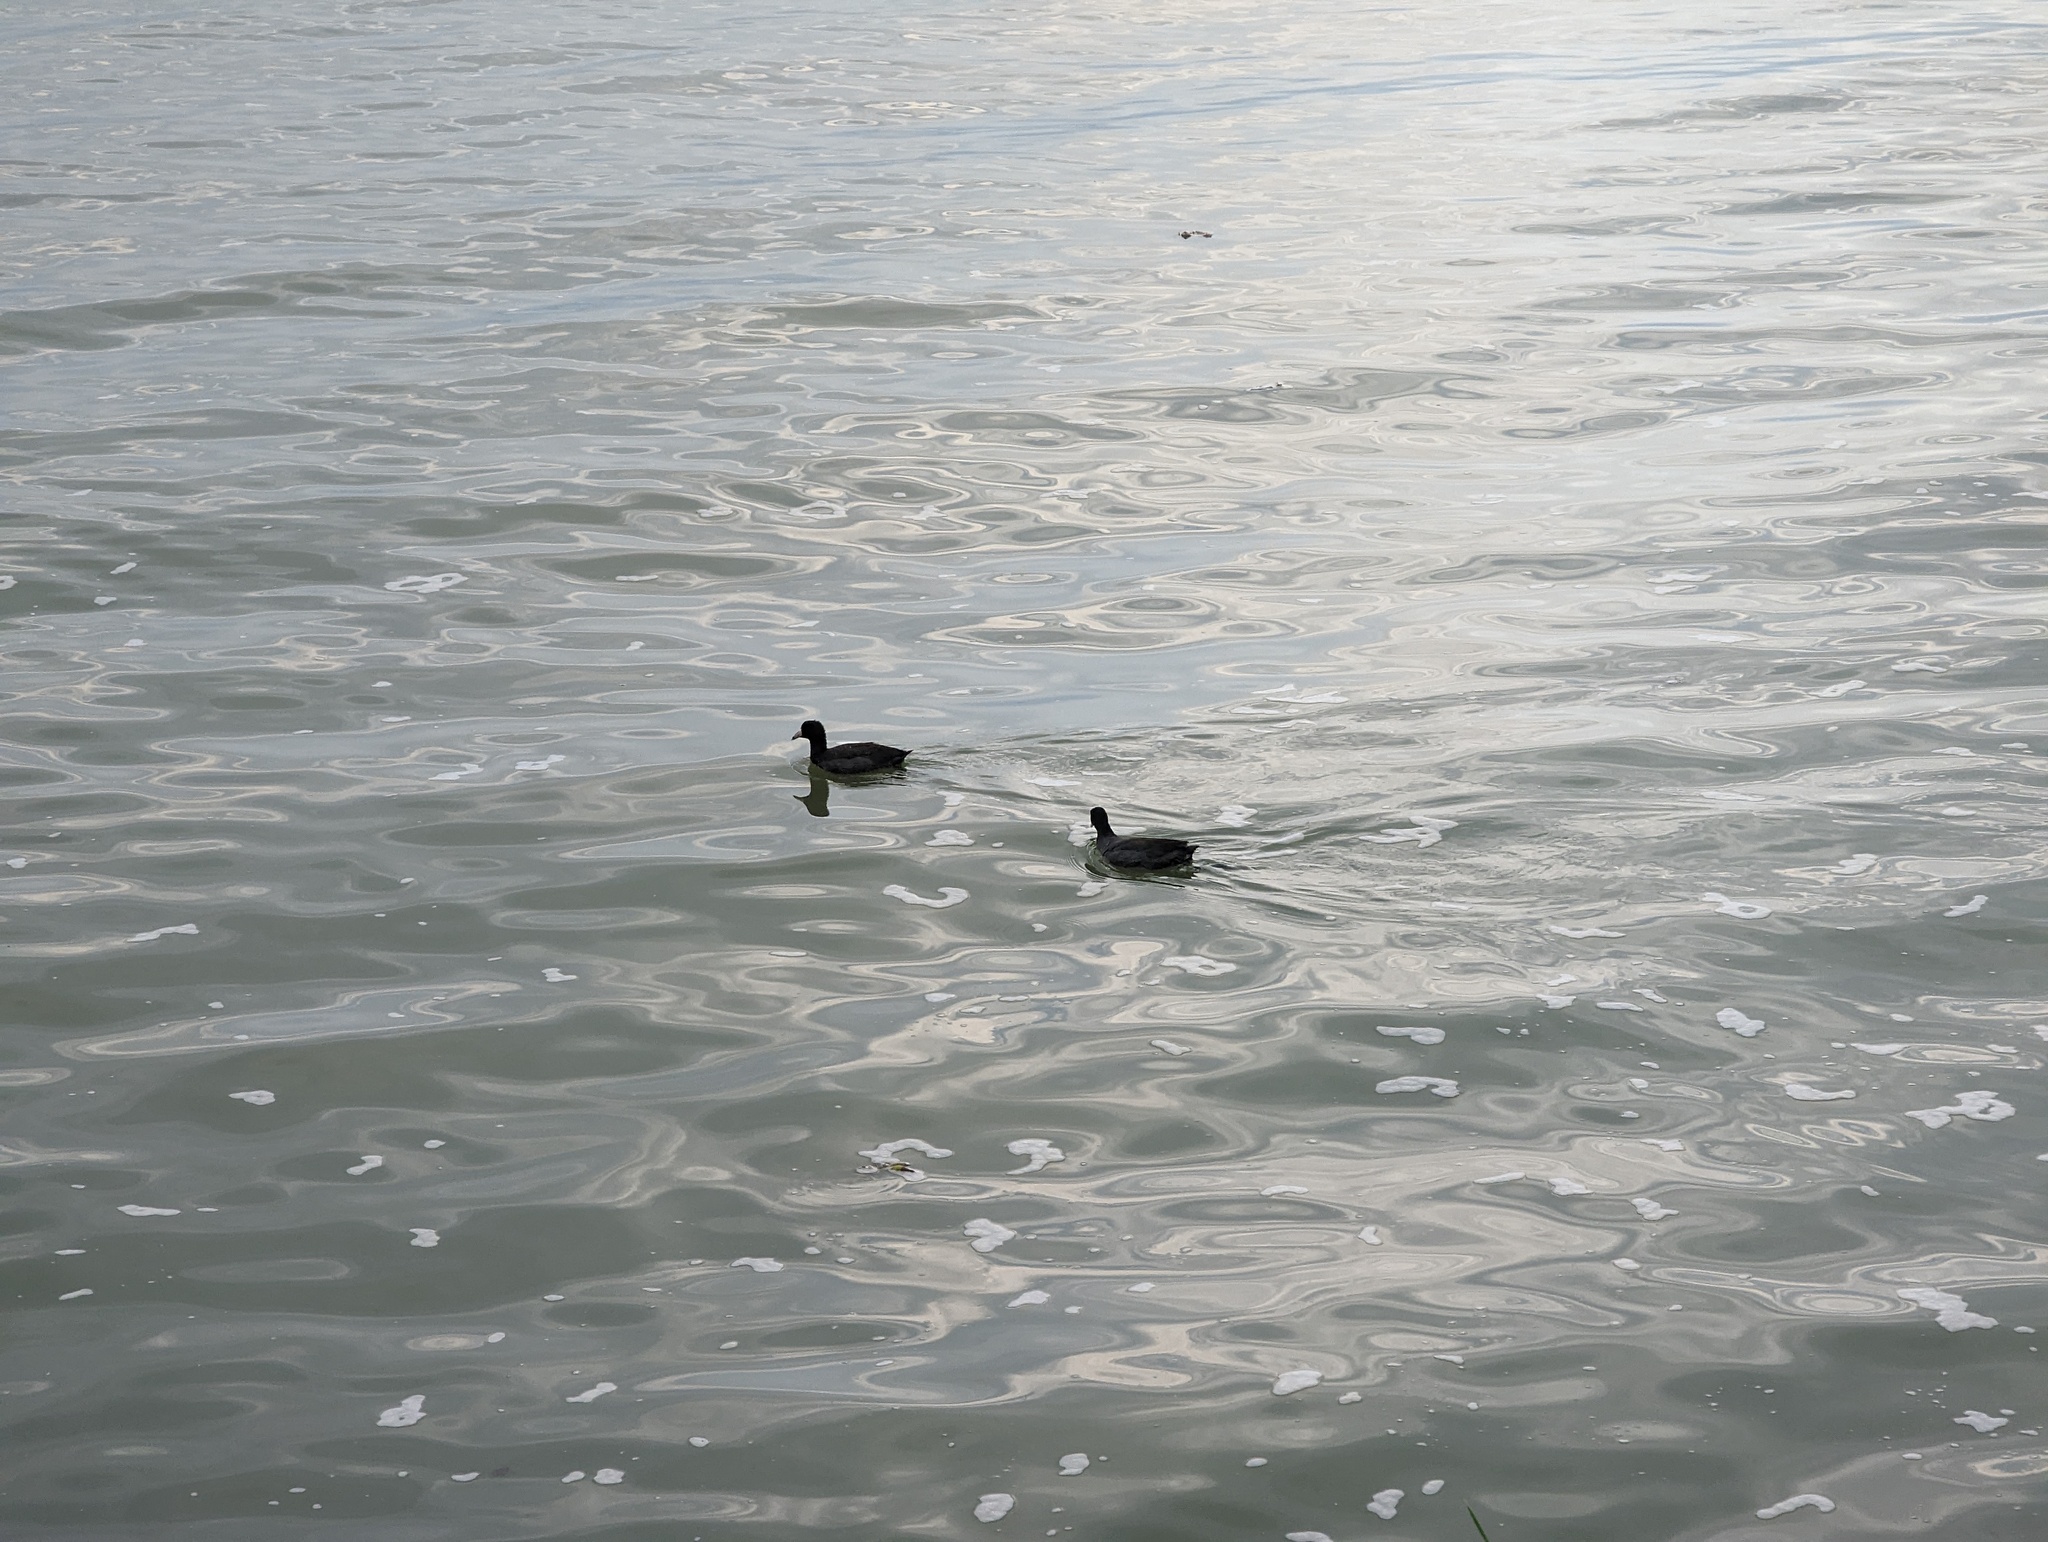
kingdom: Animalia
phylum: Chordata
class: Aves
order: Gruiformes
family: Rallidae
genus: Fulica
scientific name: Fulica americana
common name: American coot
